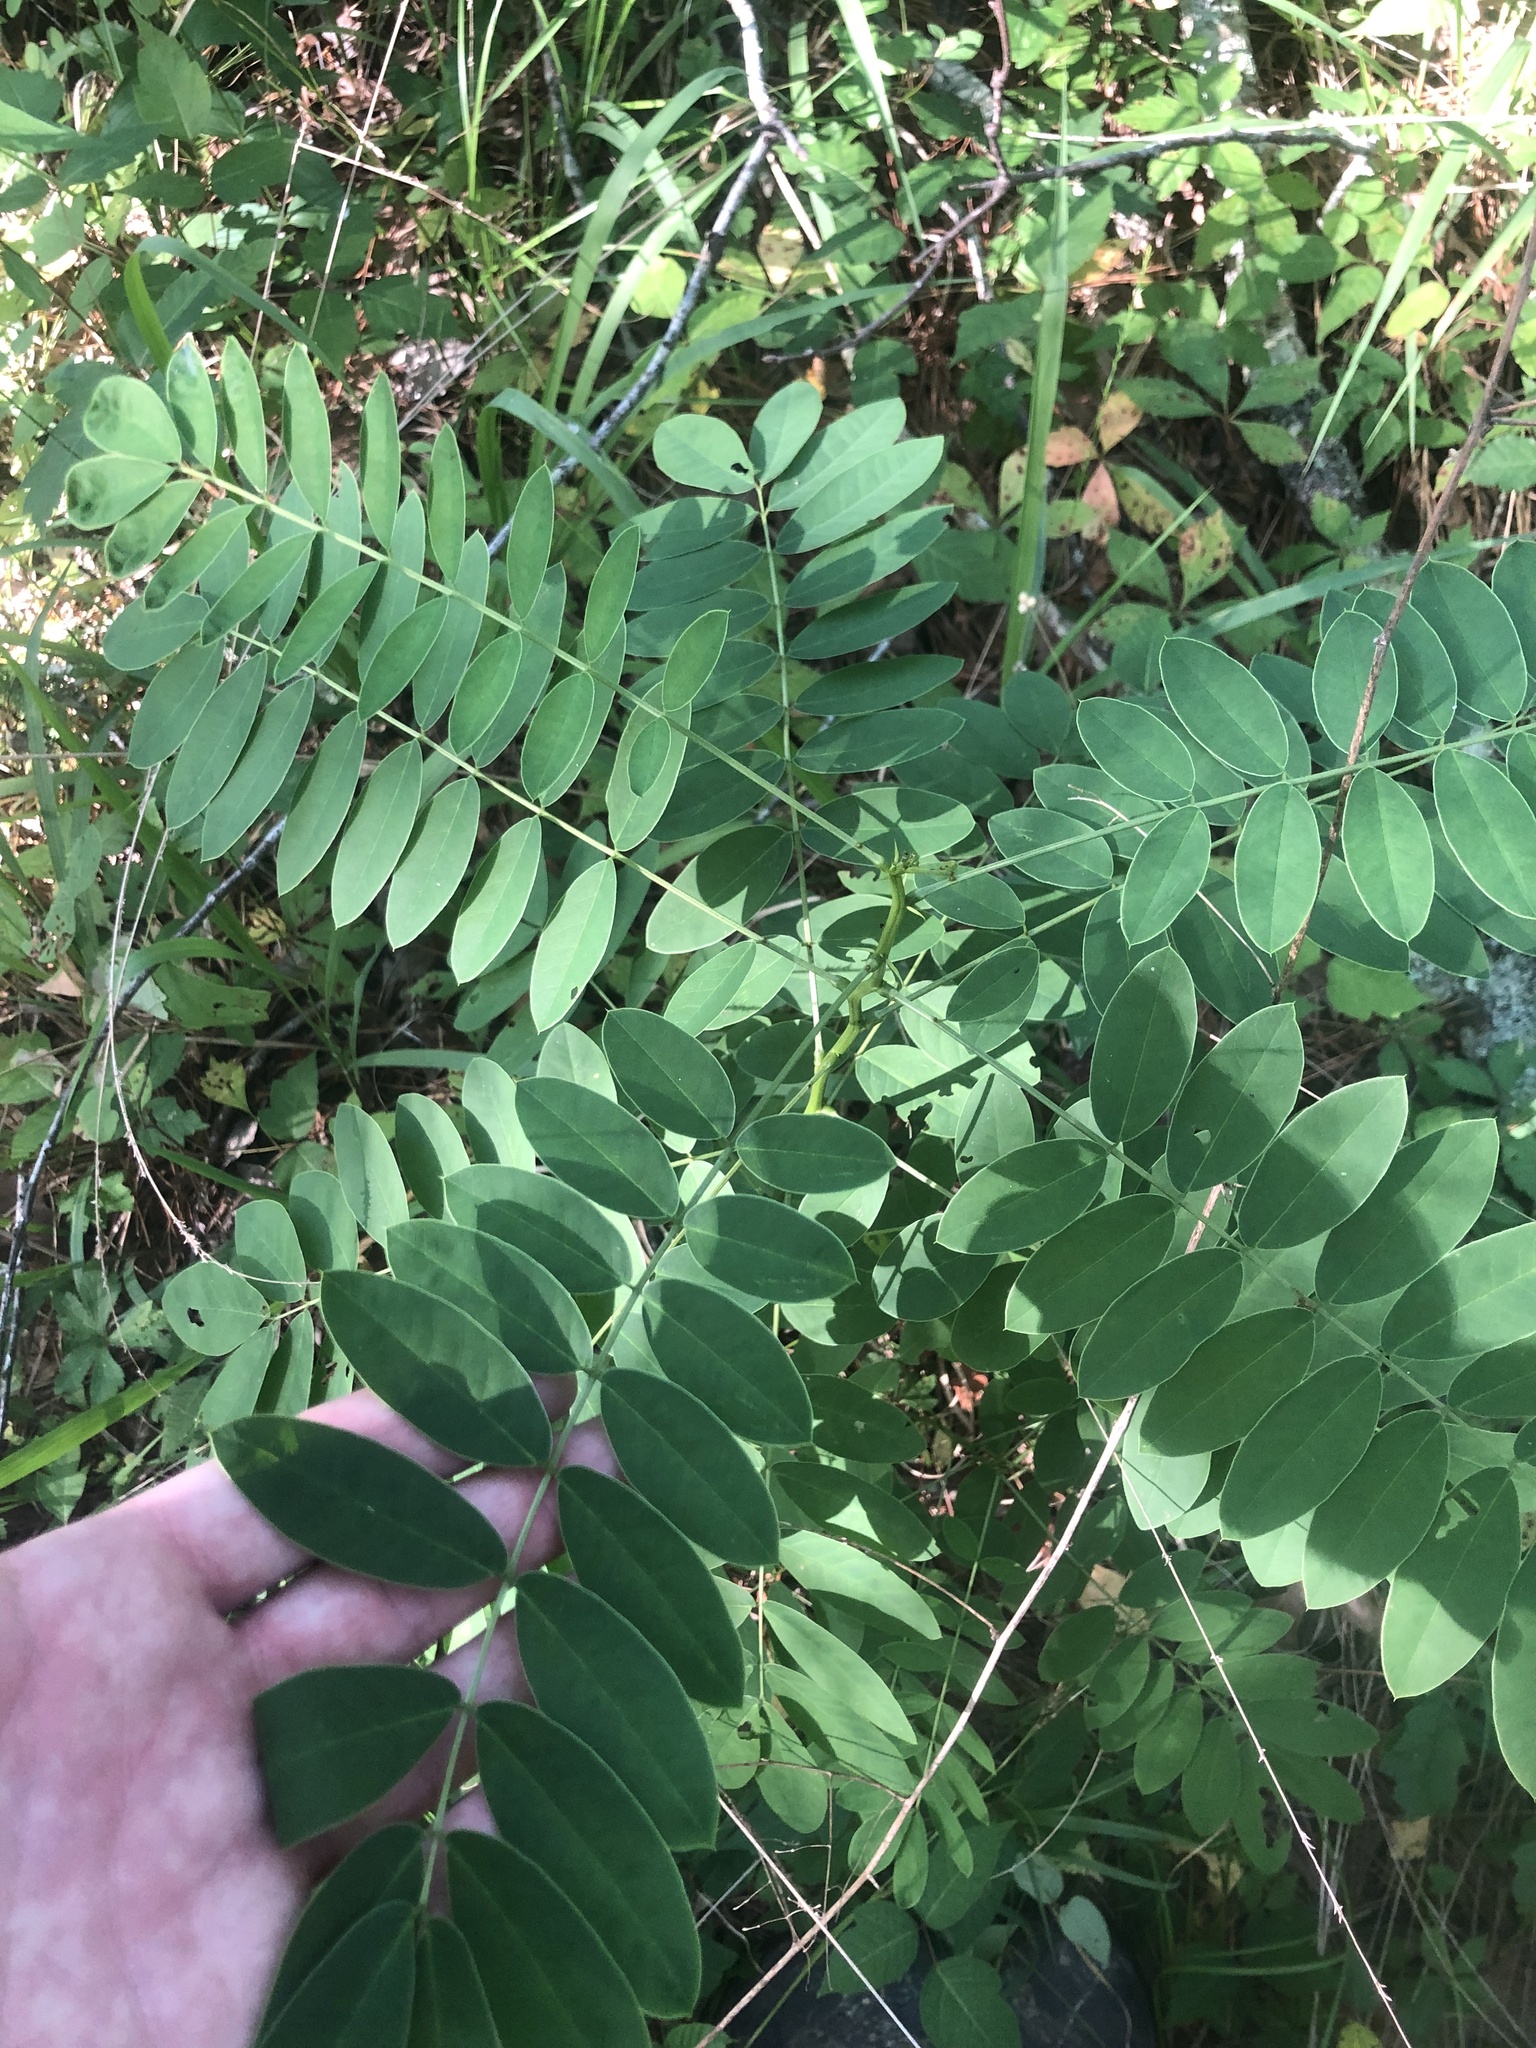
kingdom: Plantae
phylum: Tracheophyta
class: Magnoliopsida
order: Fabales
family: Fabaceae
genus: Senna
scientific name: Senna marilandica
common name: American senna
